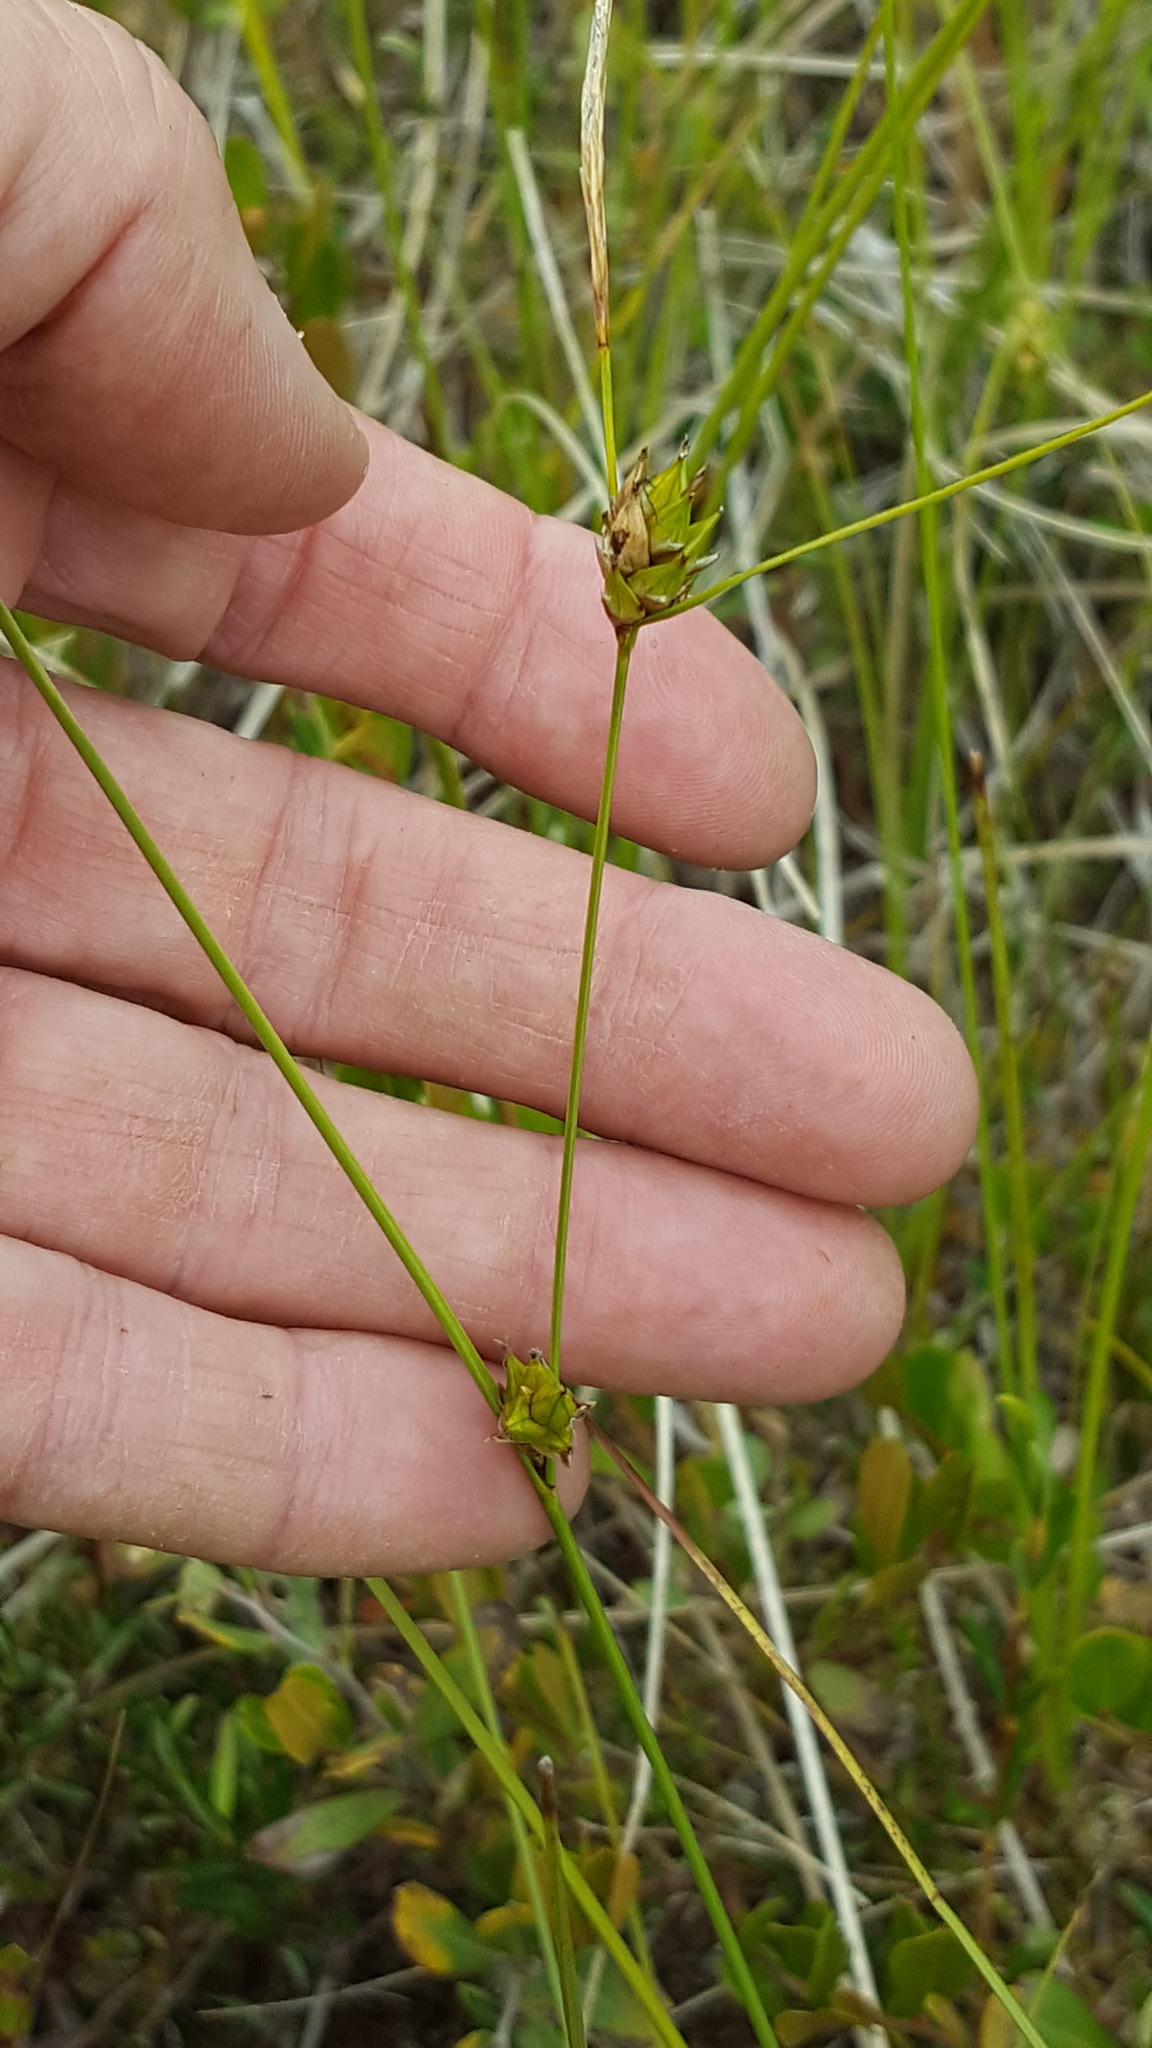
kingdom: Plantae
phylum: Tracheophyta
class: Liliopsida
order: Poales
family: Cyperaceae
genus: Carex
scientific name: Carex oligosperma
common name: Few-seed sedge
